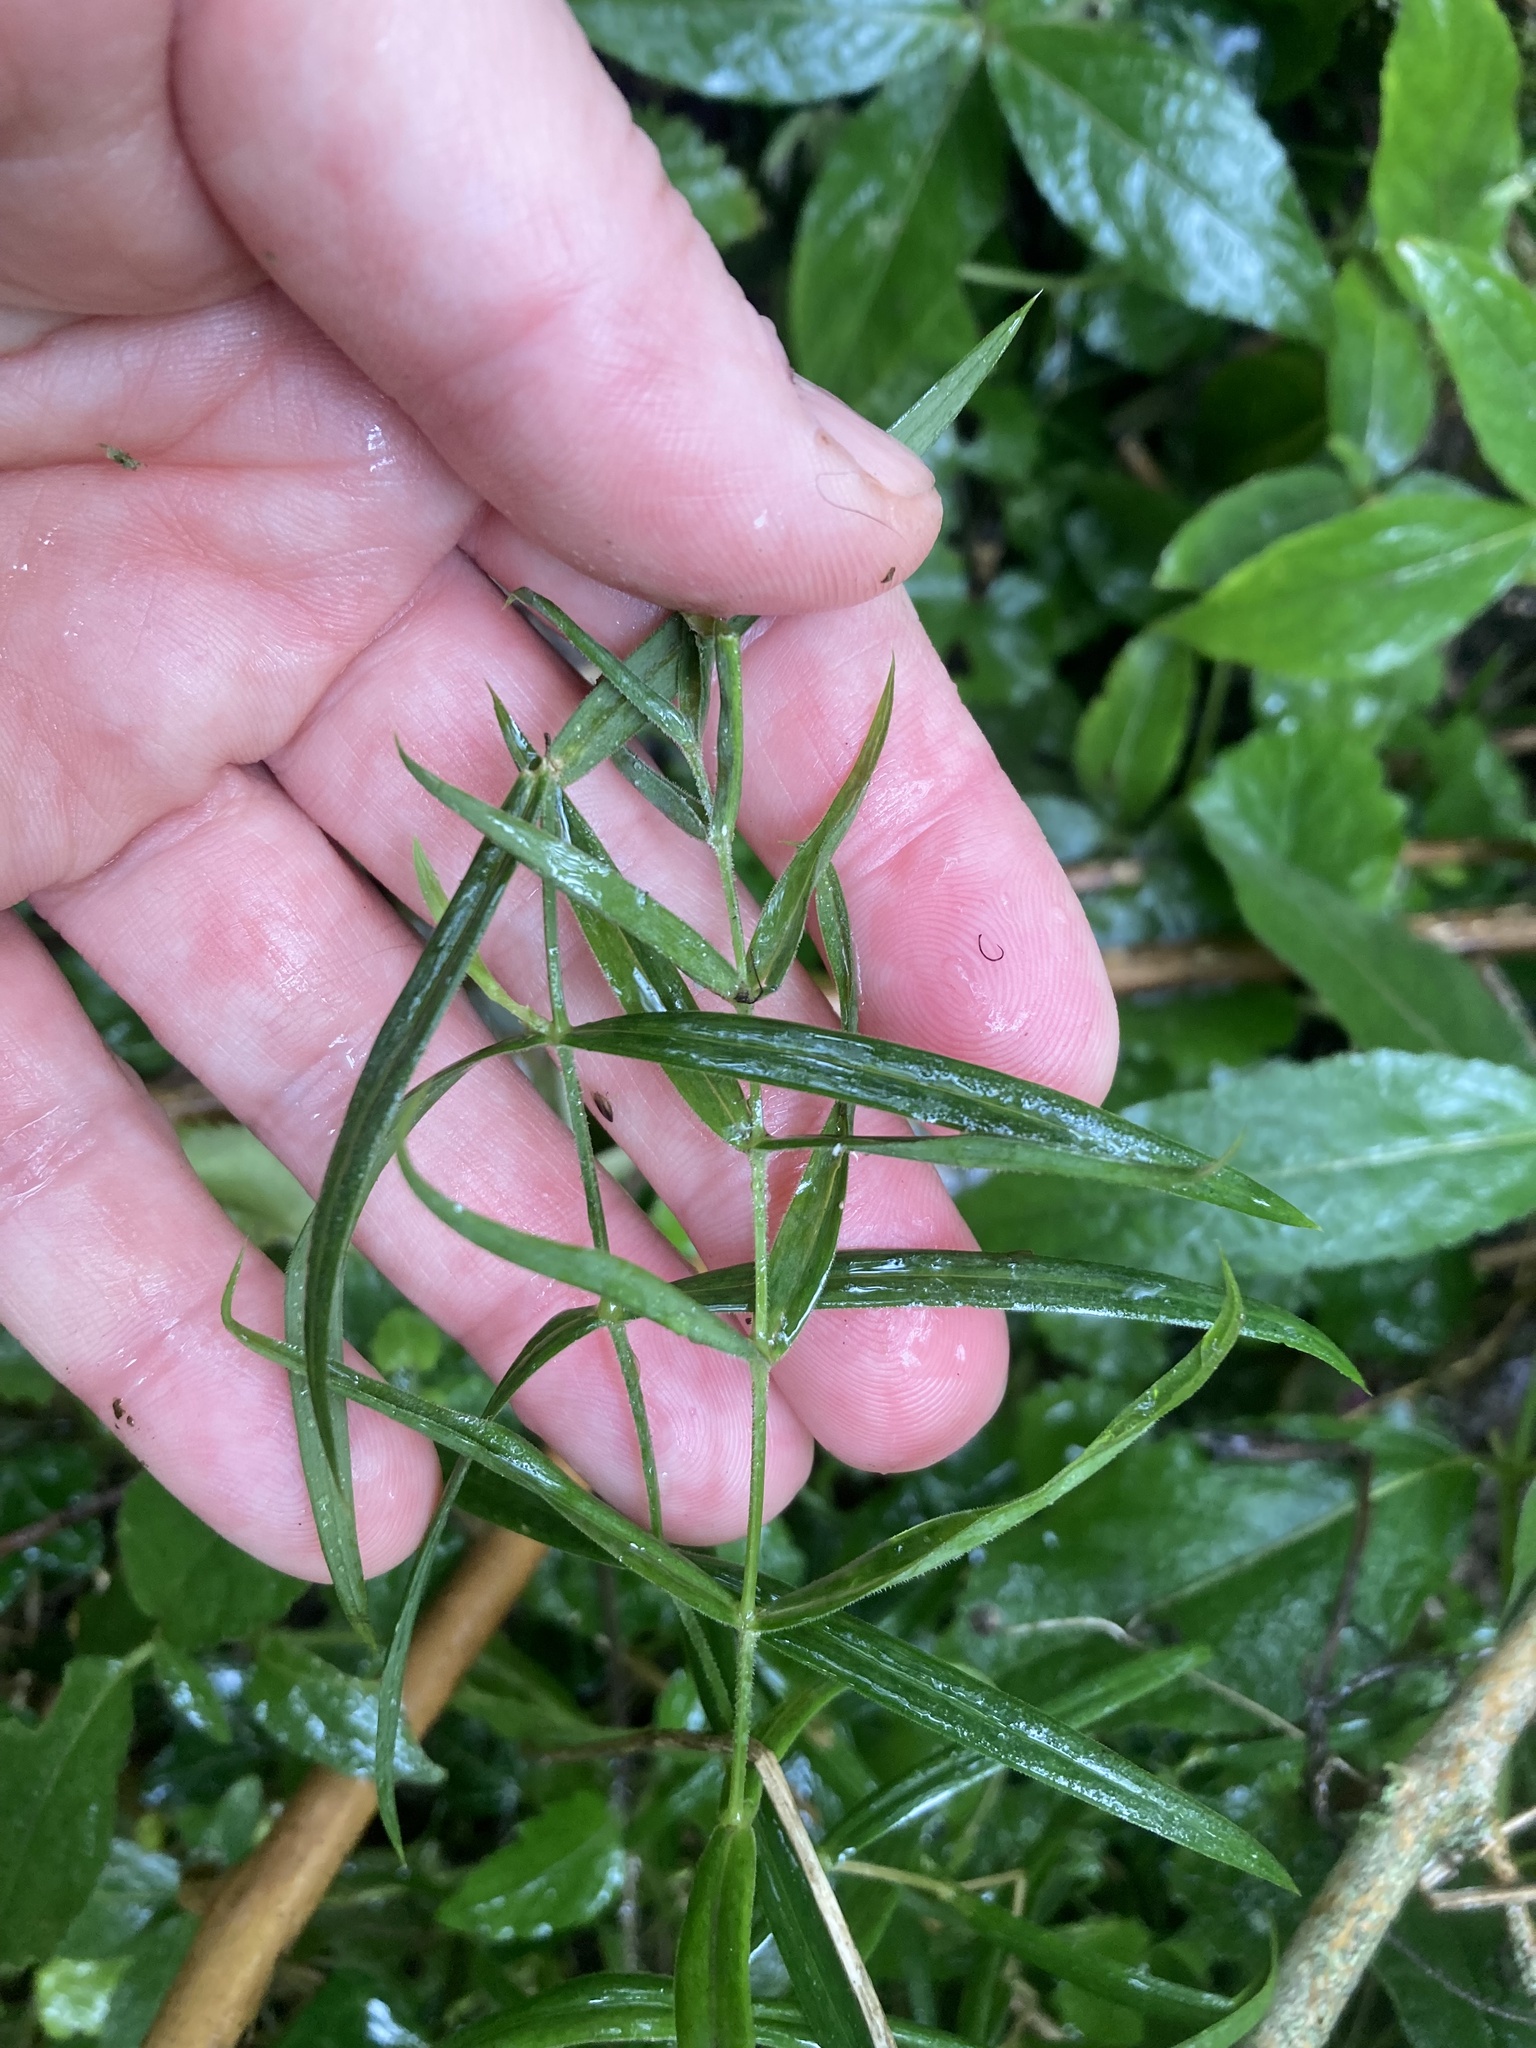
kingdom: Plantae
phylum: Tracheophyta
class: Magnoliopsida
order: Caryophyllales
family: Caryophyllaceae
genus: Rabelera
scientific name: Rabelera holostea
